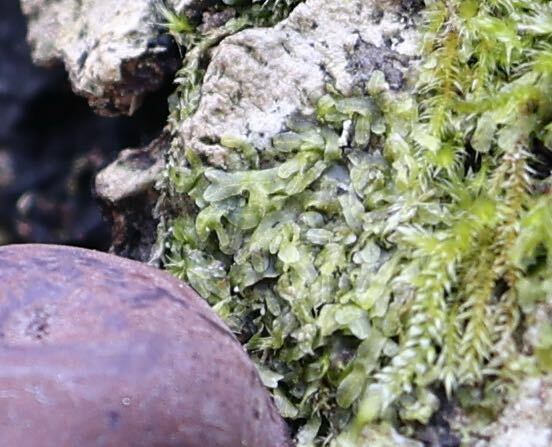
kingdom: Plantae
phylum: Marchantiophyta
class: Jungermanniopsida
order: Metzgeriales
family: Metzgeriaceae
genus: Metzgeria
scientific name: Metzgeria furcata
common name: Forked veilwort
